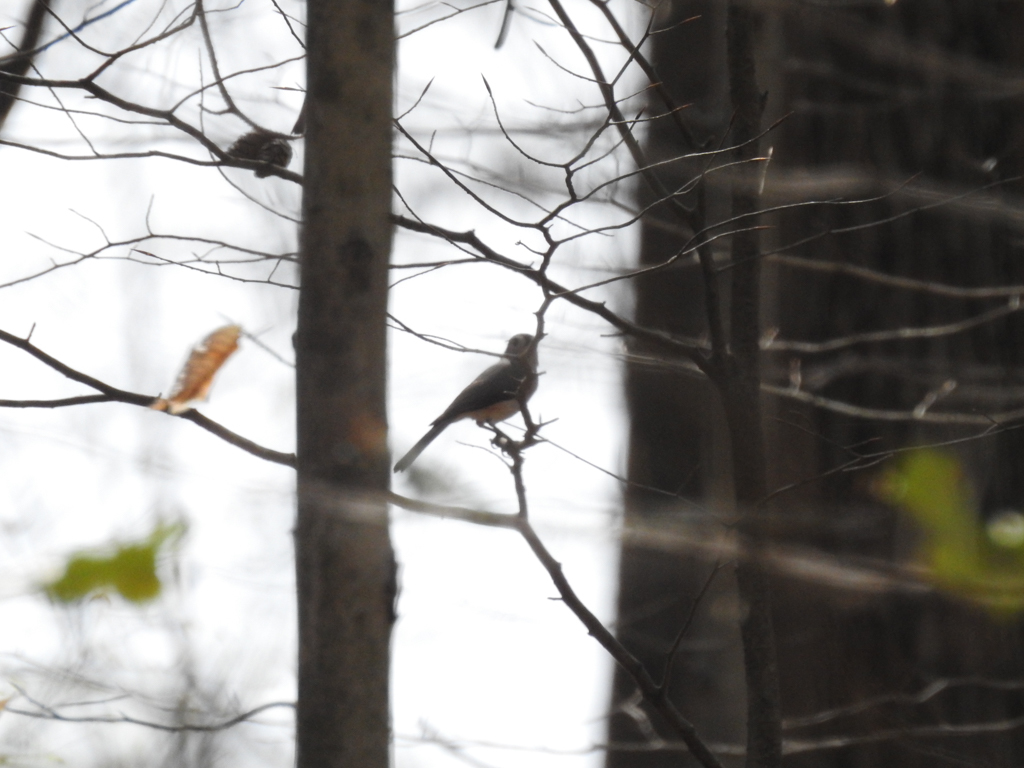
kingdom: Animalia
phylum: Chordata
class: Aves
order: Passeriformes
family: Paridae
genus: Baeolophus
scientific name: Baeolophus bicolor
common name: Tufted titmouse
